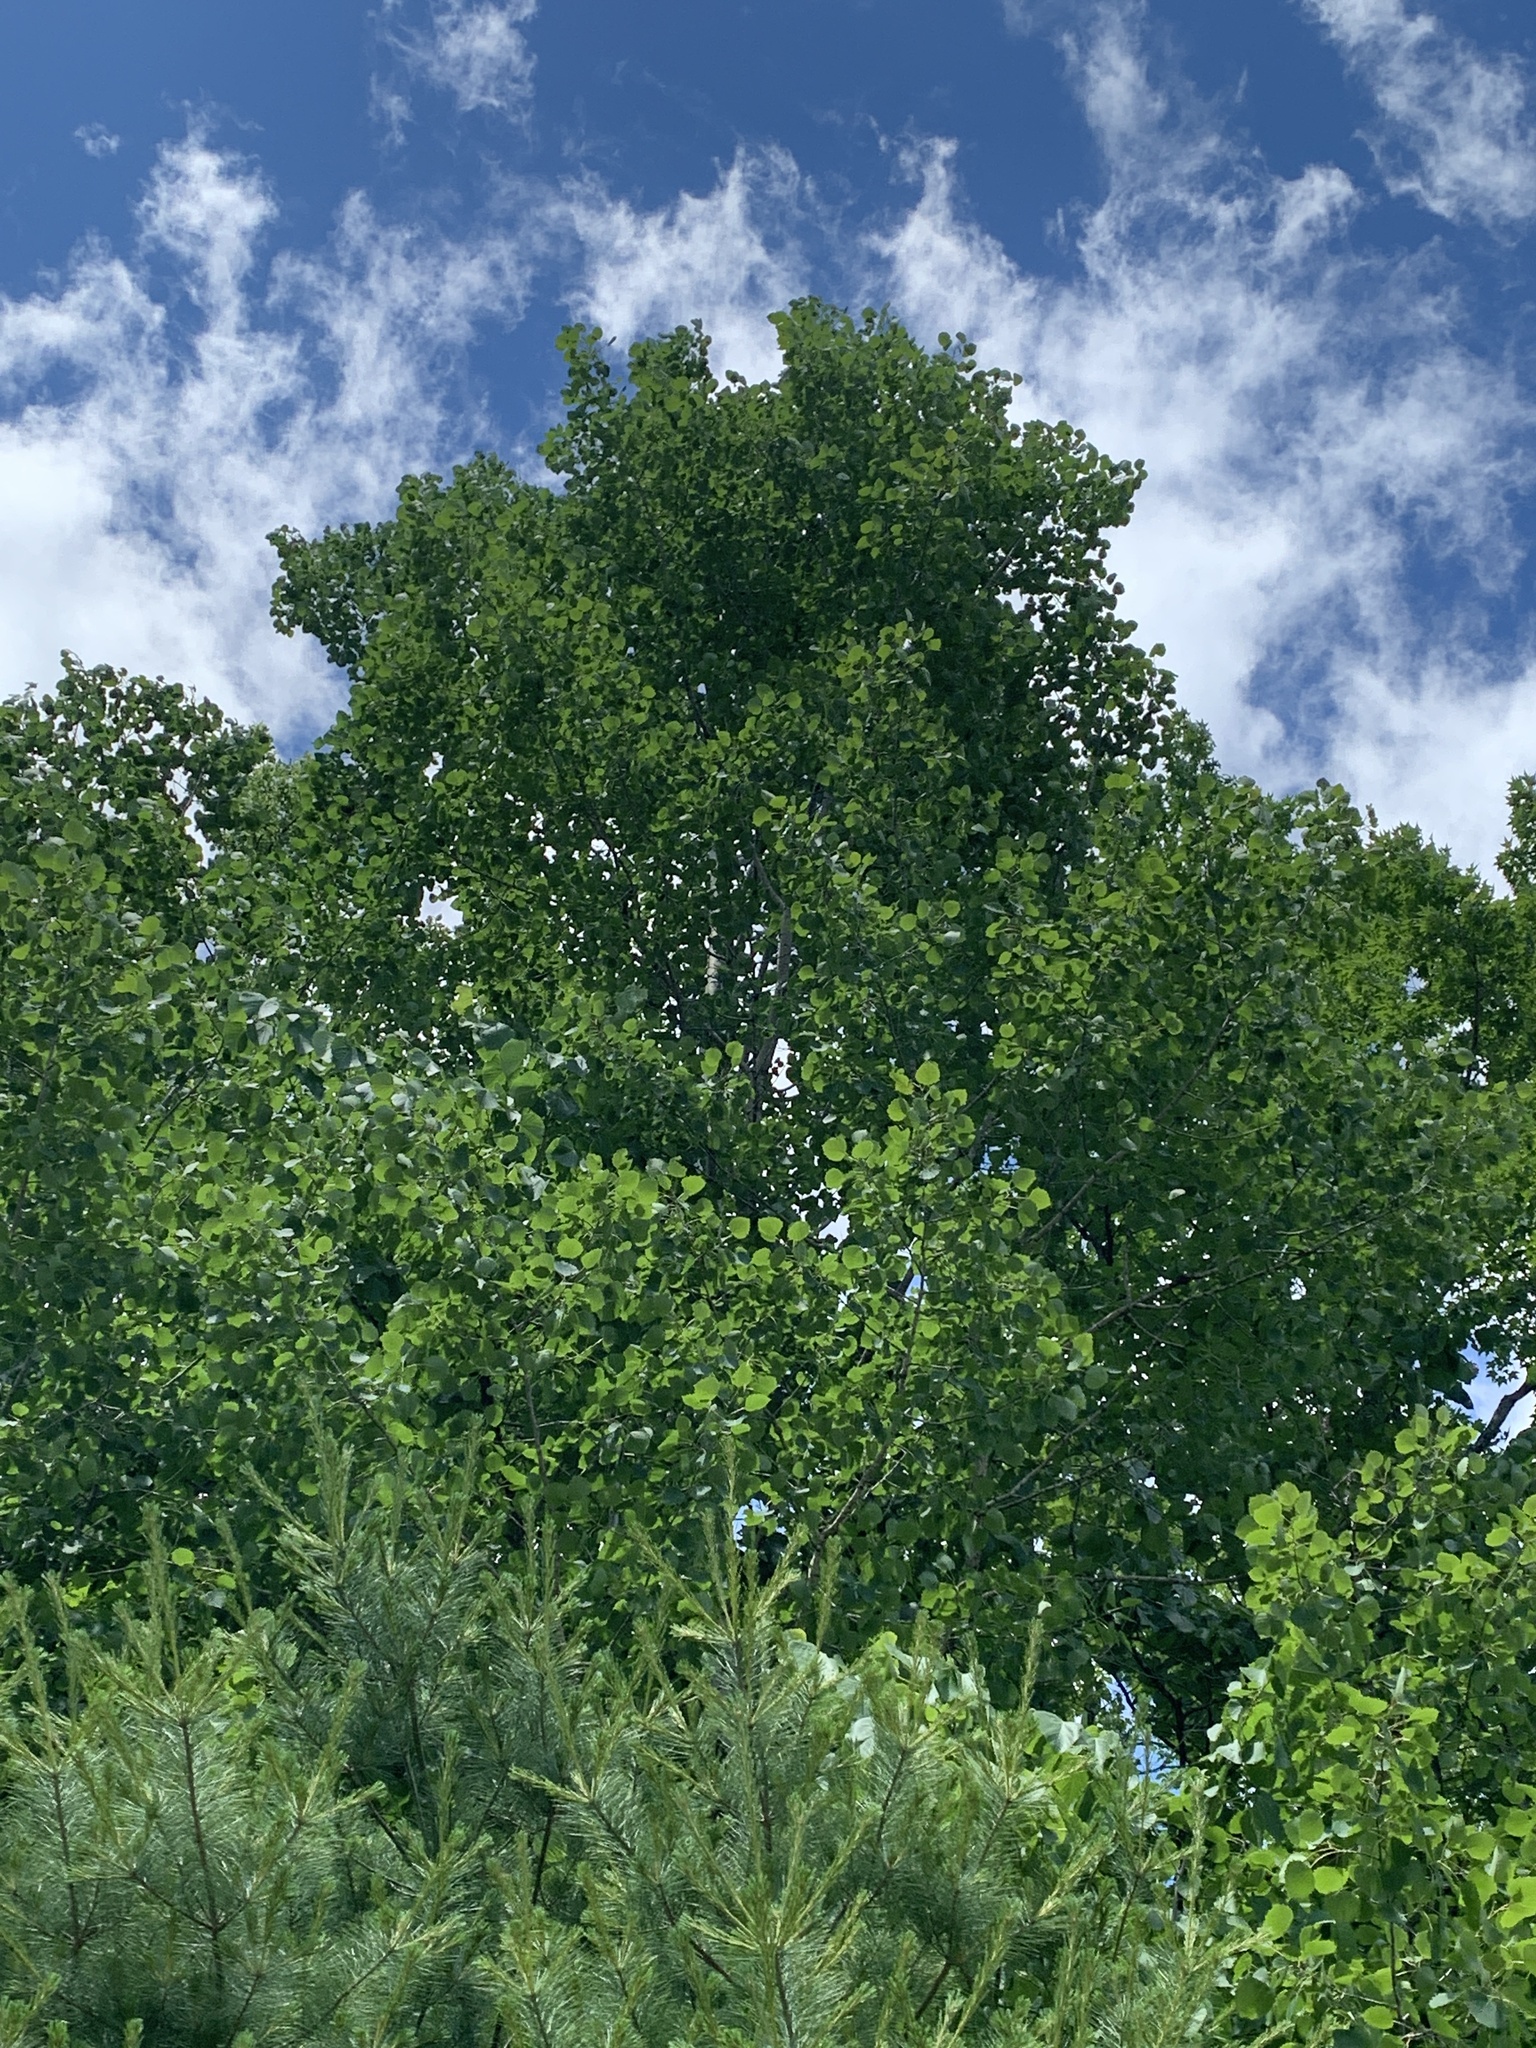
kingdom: Plantae
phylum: Tracheophyta
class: Magnoliopsida
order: Malpighiales
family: Salicaceae
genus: Populus
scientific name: Populus grandidentata
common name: Bigtooth aspen
